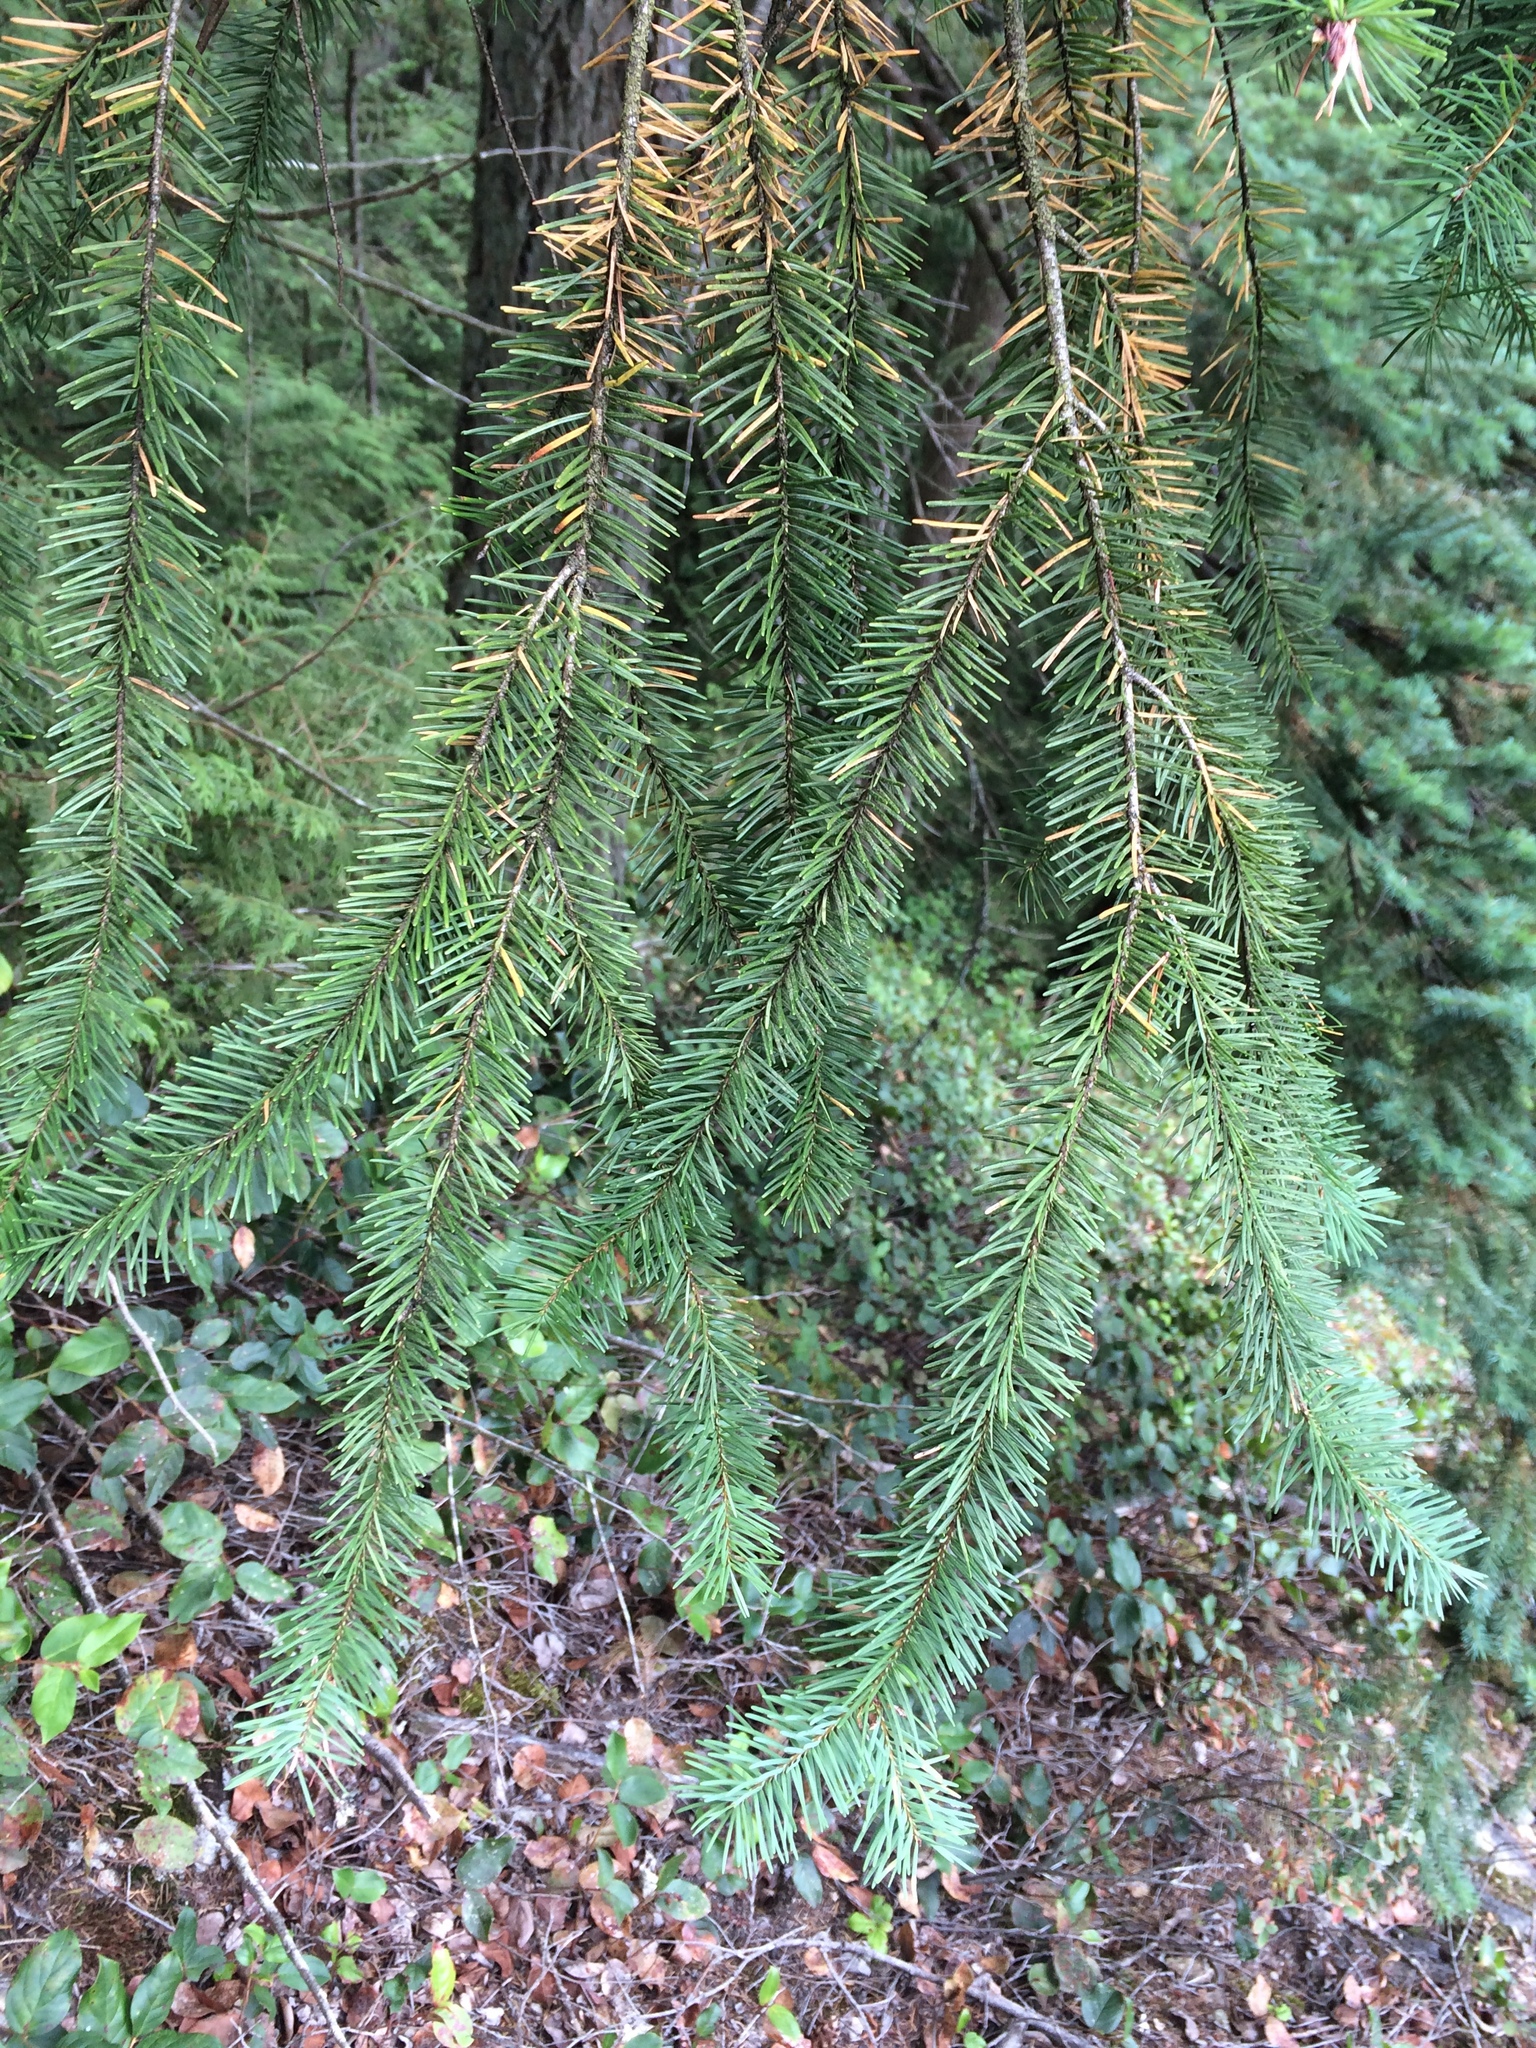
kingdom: Plantae
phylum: Tracheophyta
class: Pinopsida
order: Pinales
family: Pinaceae
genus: Pseudotsuga
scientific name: Pseudotsuga menziesii
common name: Douglas fir
